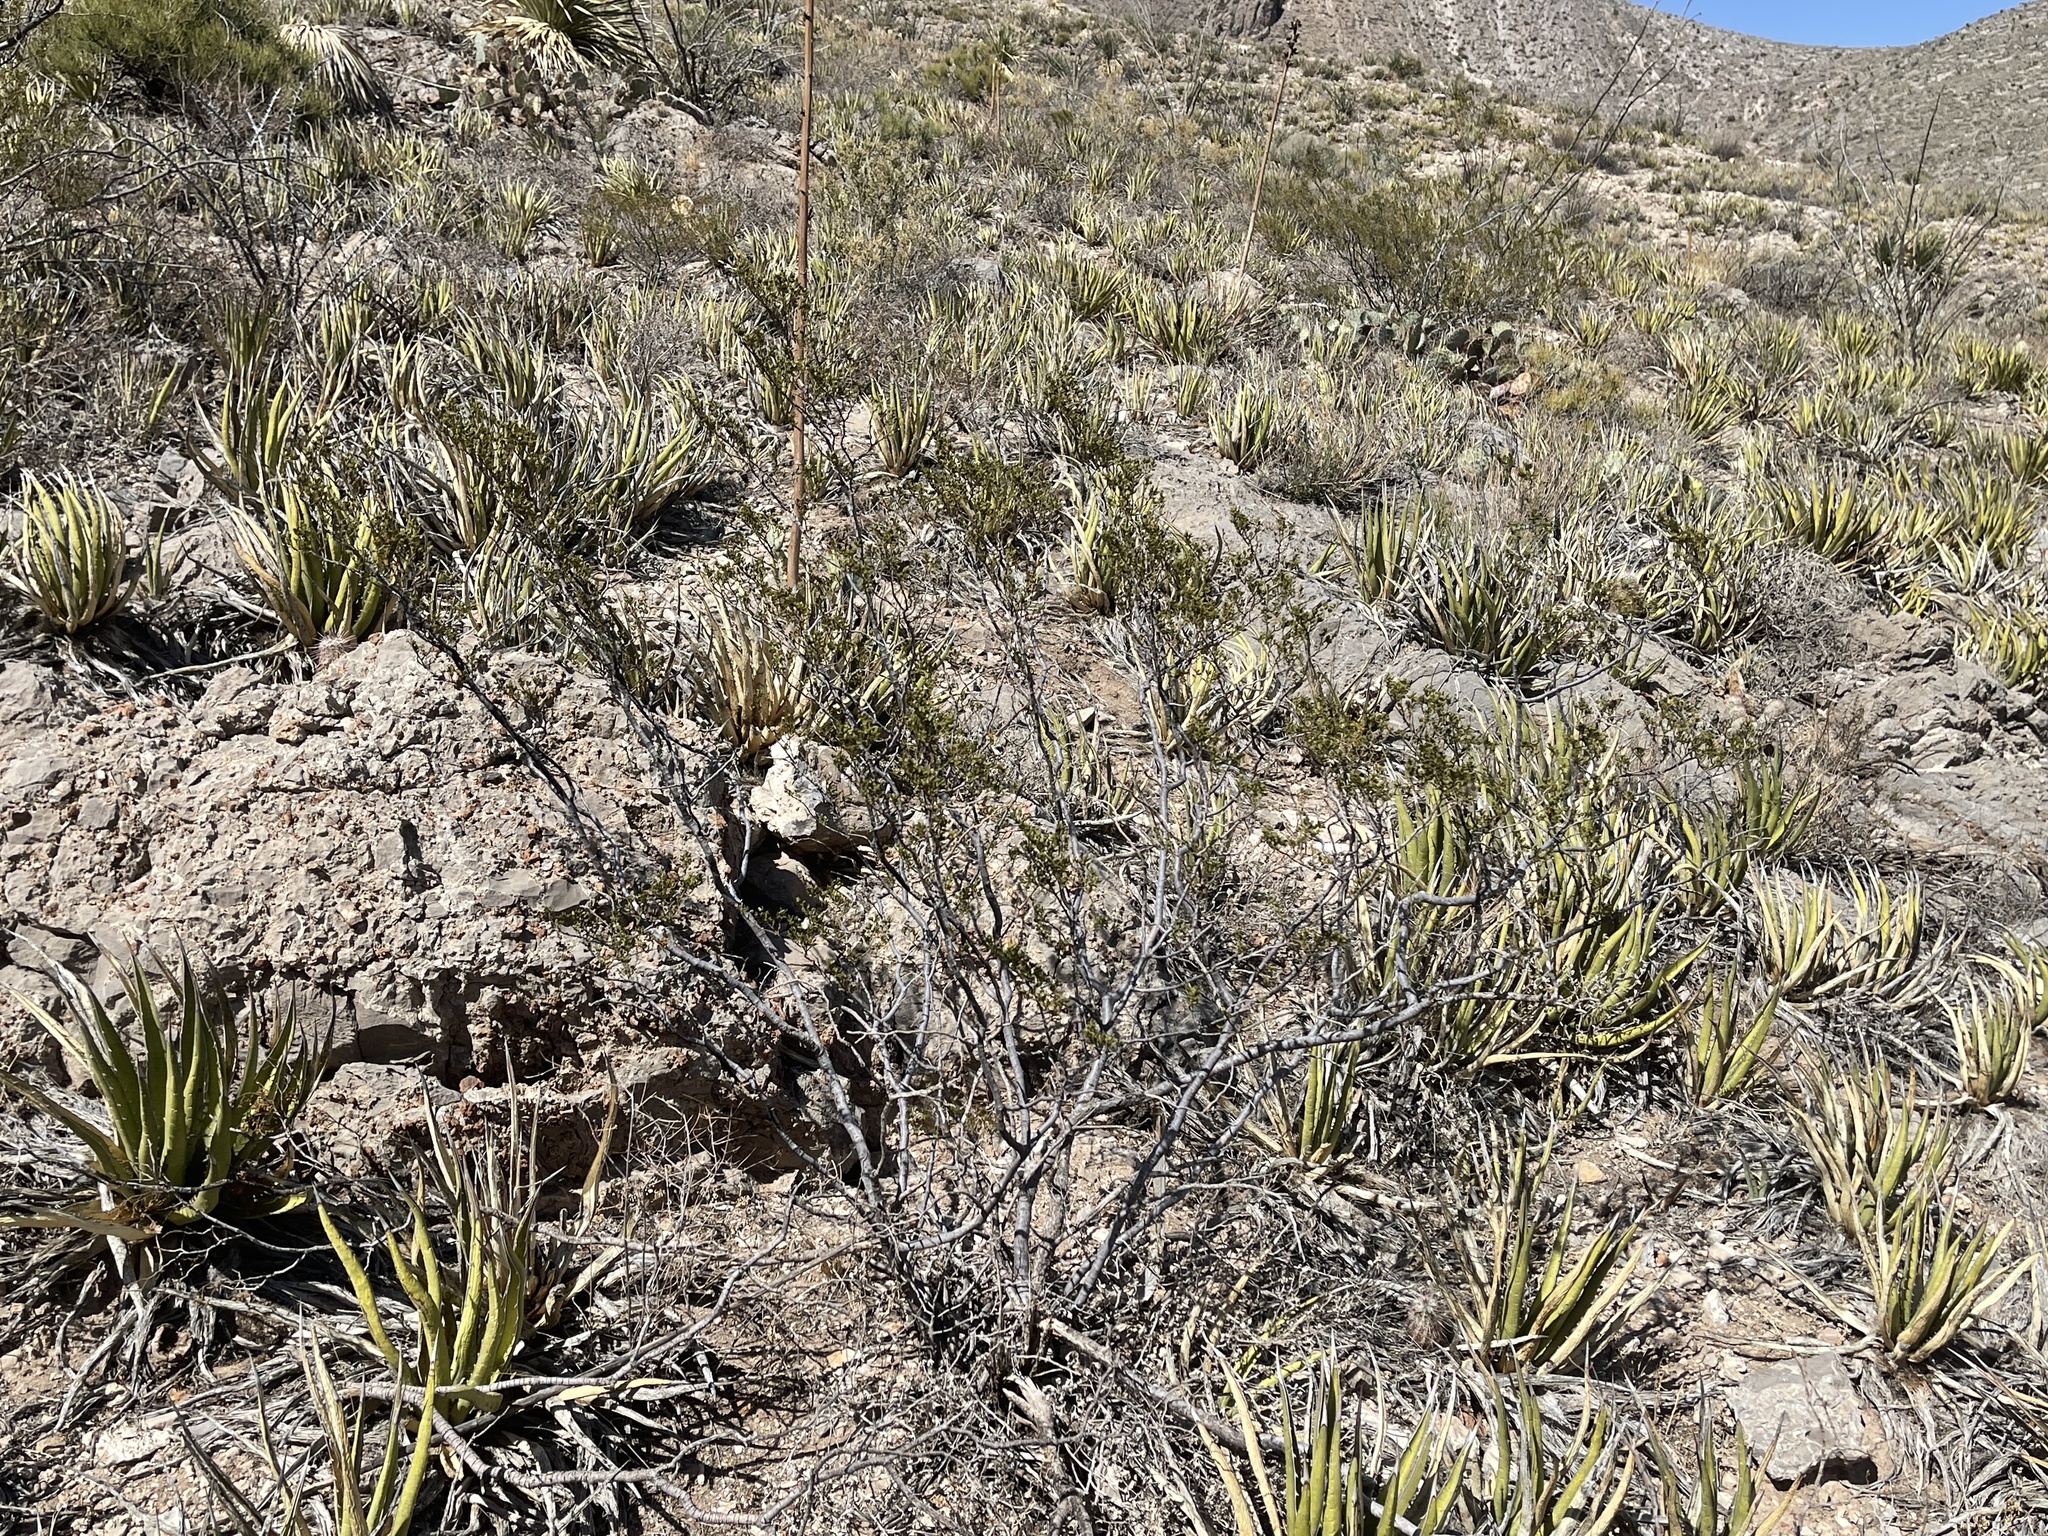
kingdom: Plantae
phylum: Tracheophyta
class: Magnoliopsida
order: Zygophyllales
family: Zygophyllaceae
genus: Larrea
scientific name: Larrea tridentata
